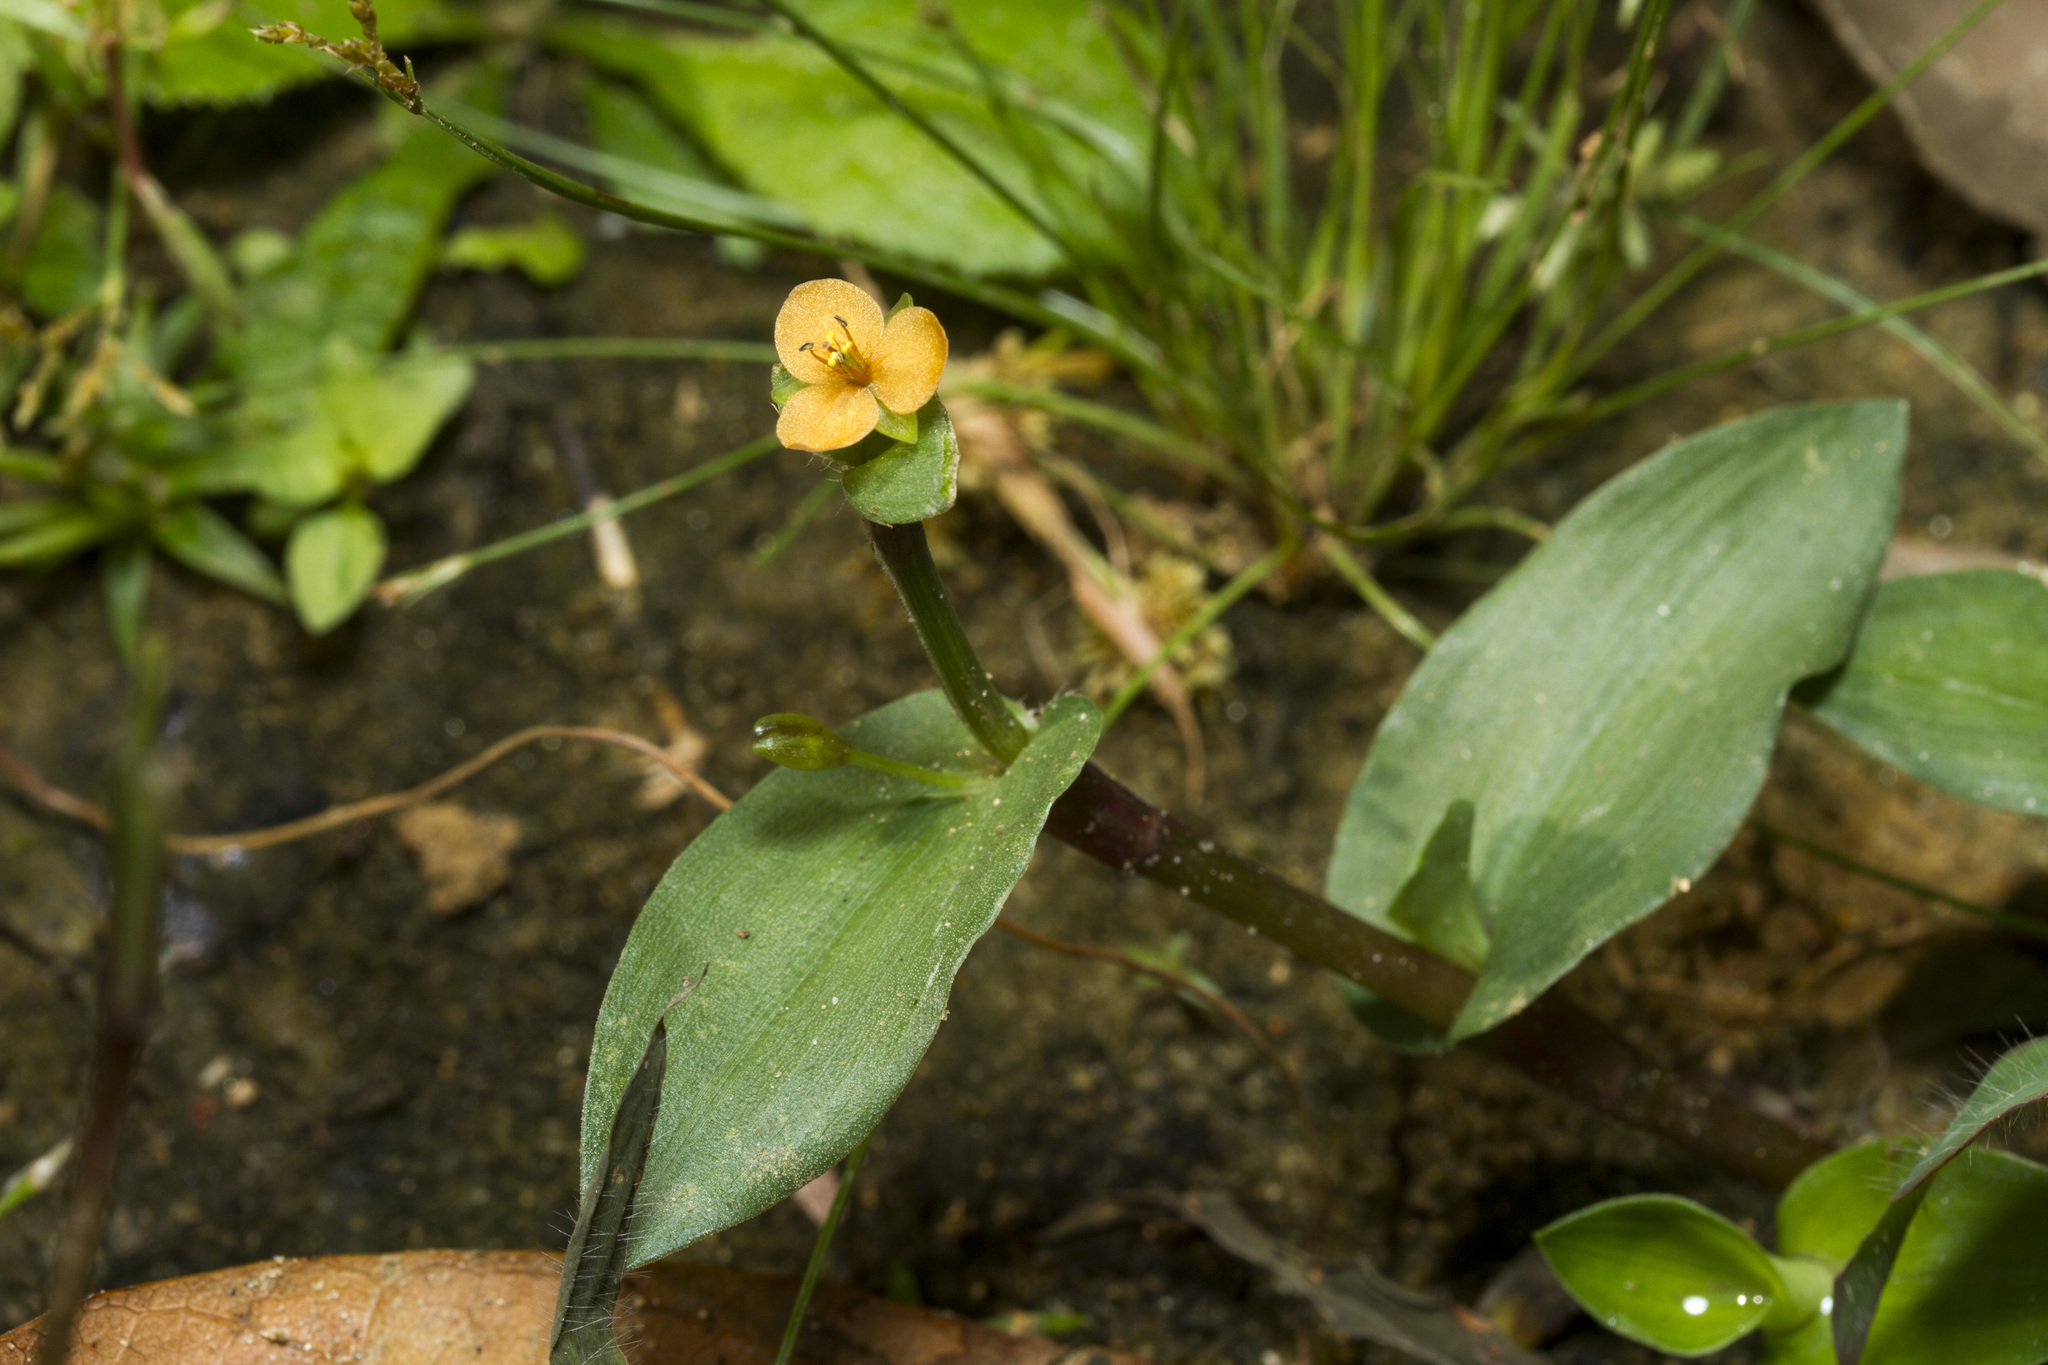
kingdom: Plantae
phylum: Tracheophyta
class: Liliopsida
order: Commelinales
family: Commelinaceae
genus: Murdannia
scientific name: Murdannia versicolor
